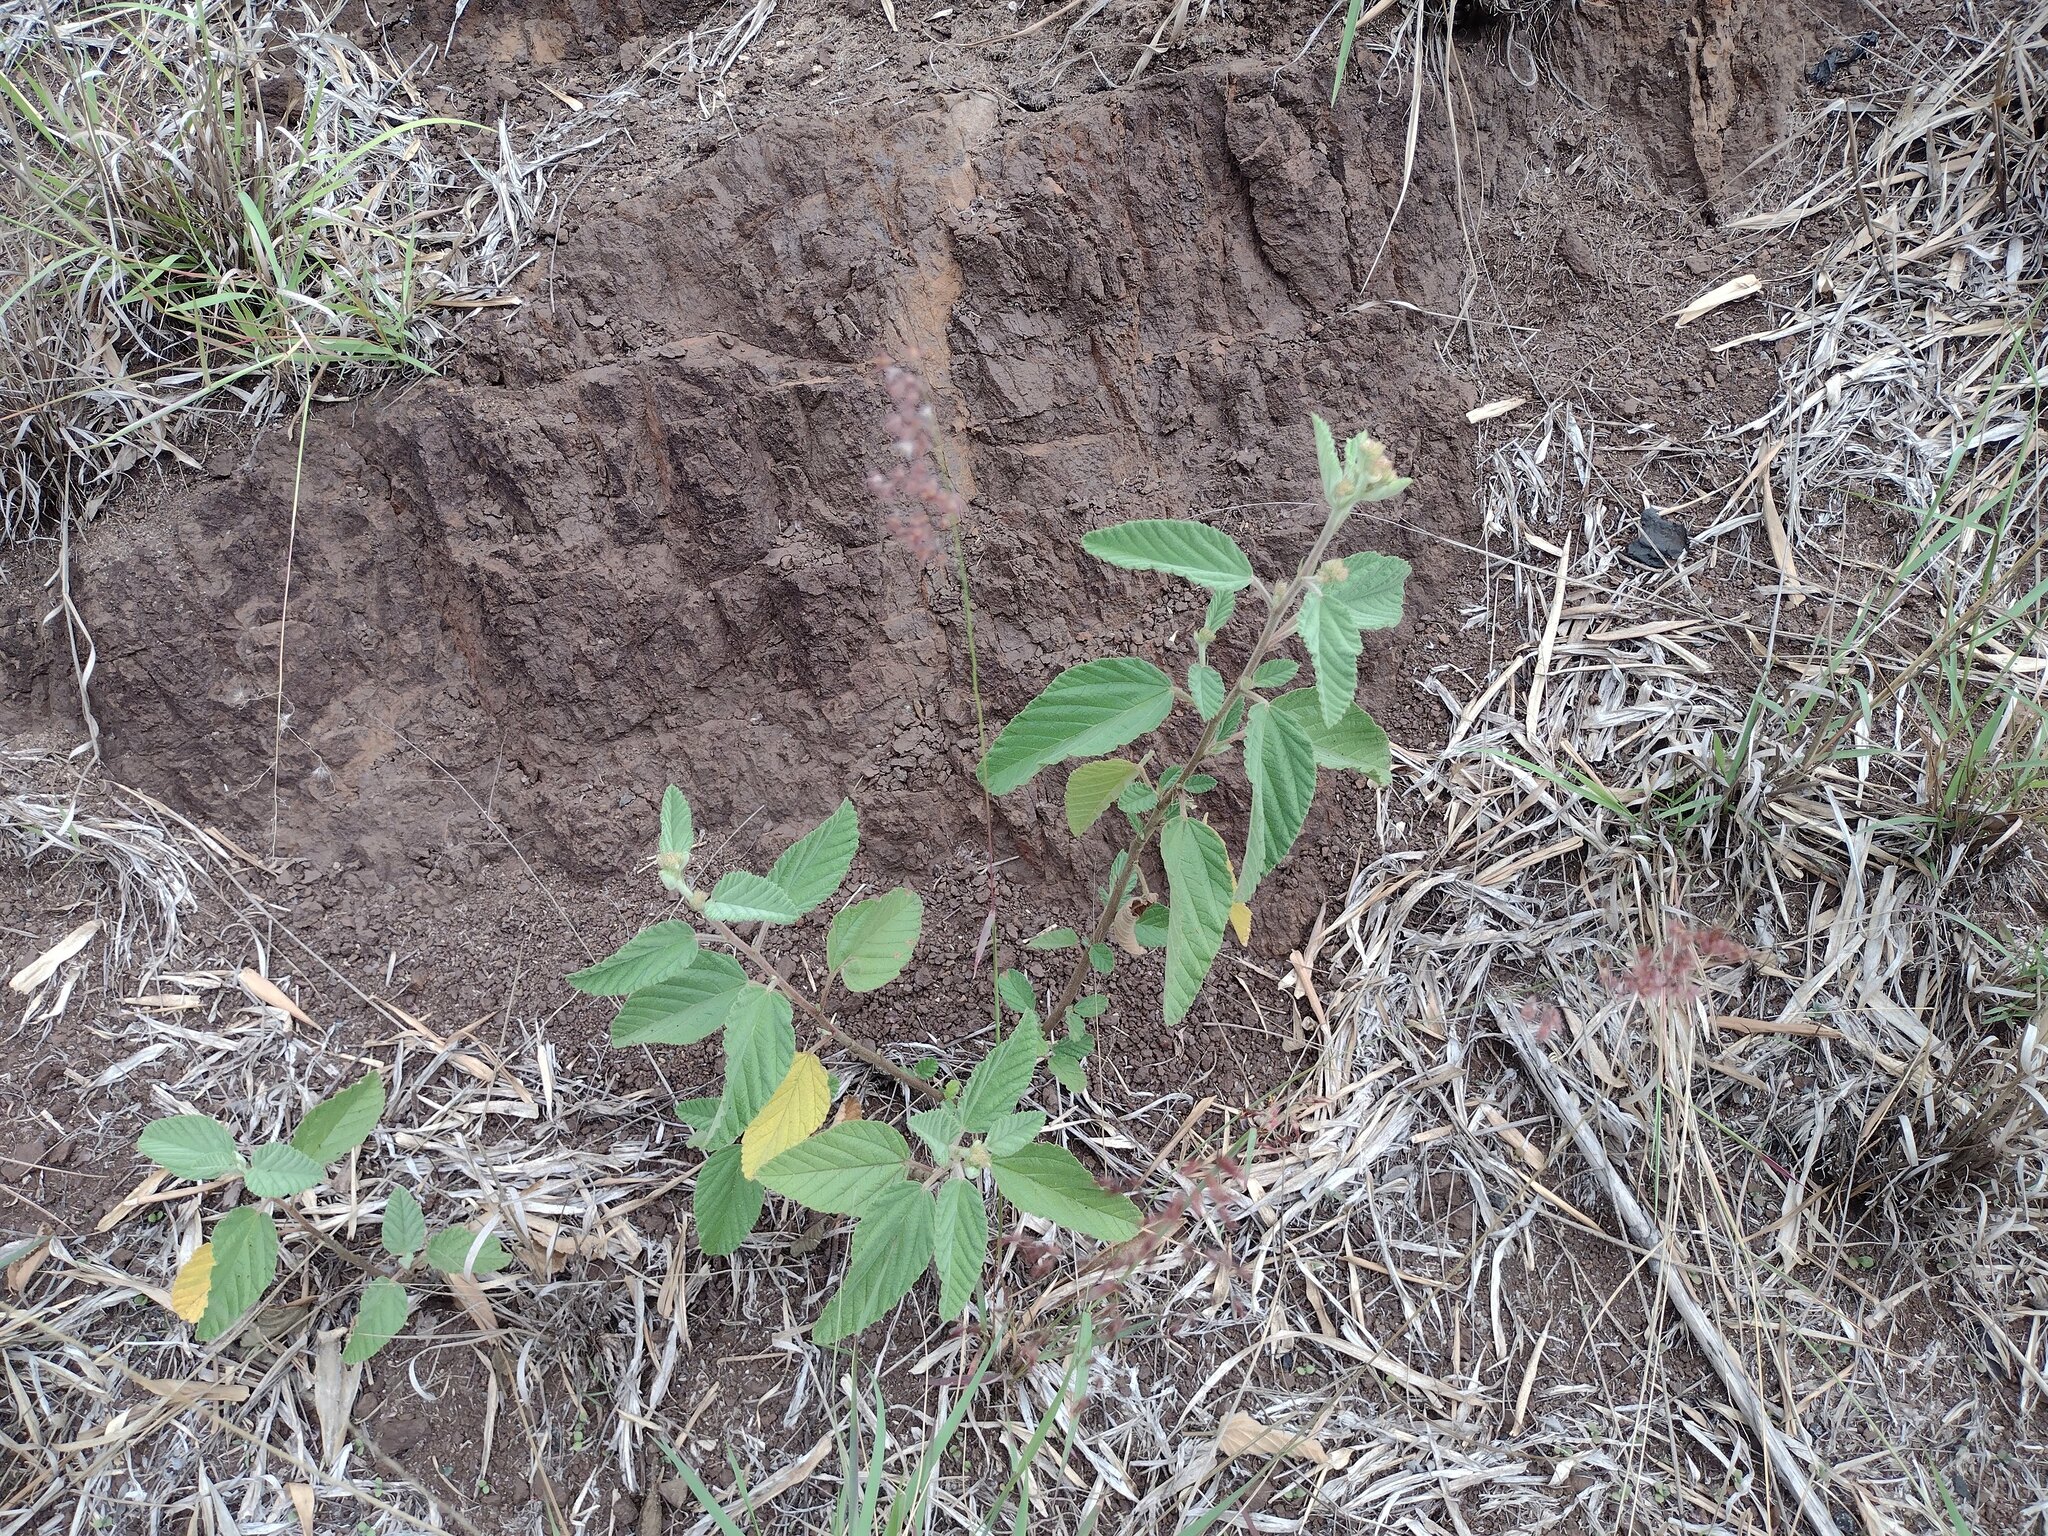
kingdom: Plantae
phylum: Tracheophyta
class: Magnoliopsida
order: Malvales
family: Malvaceae
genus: Waltheria
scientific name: Waltheria indica
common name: Leather-coat
